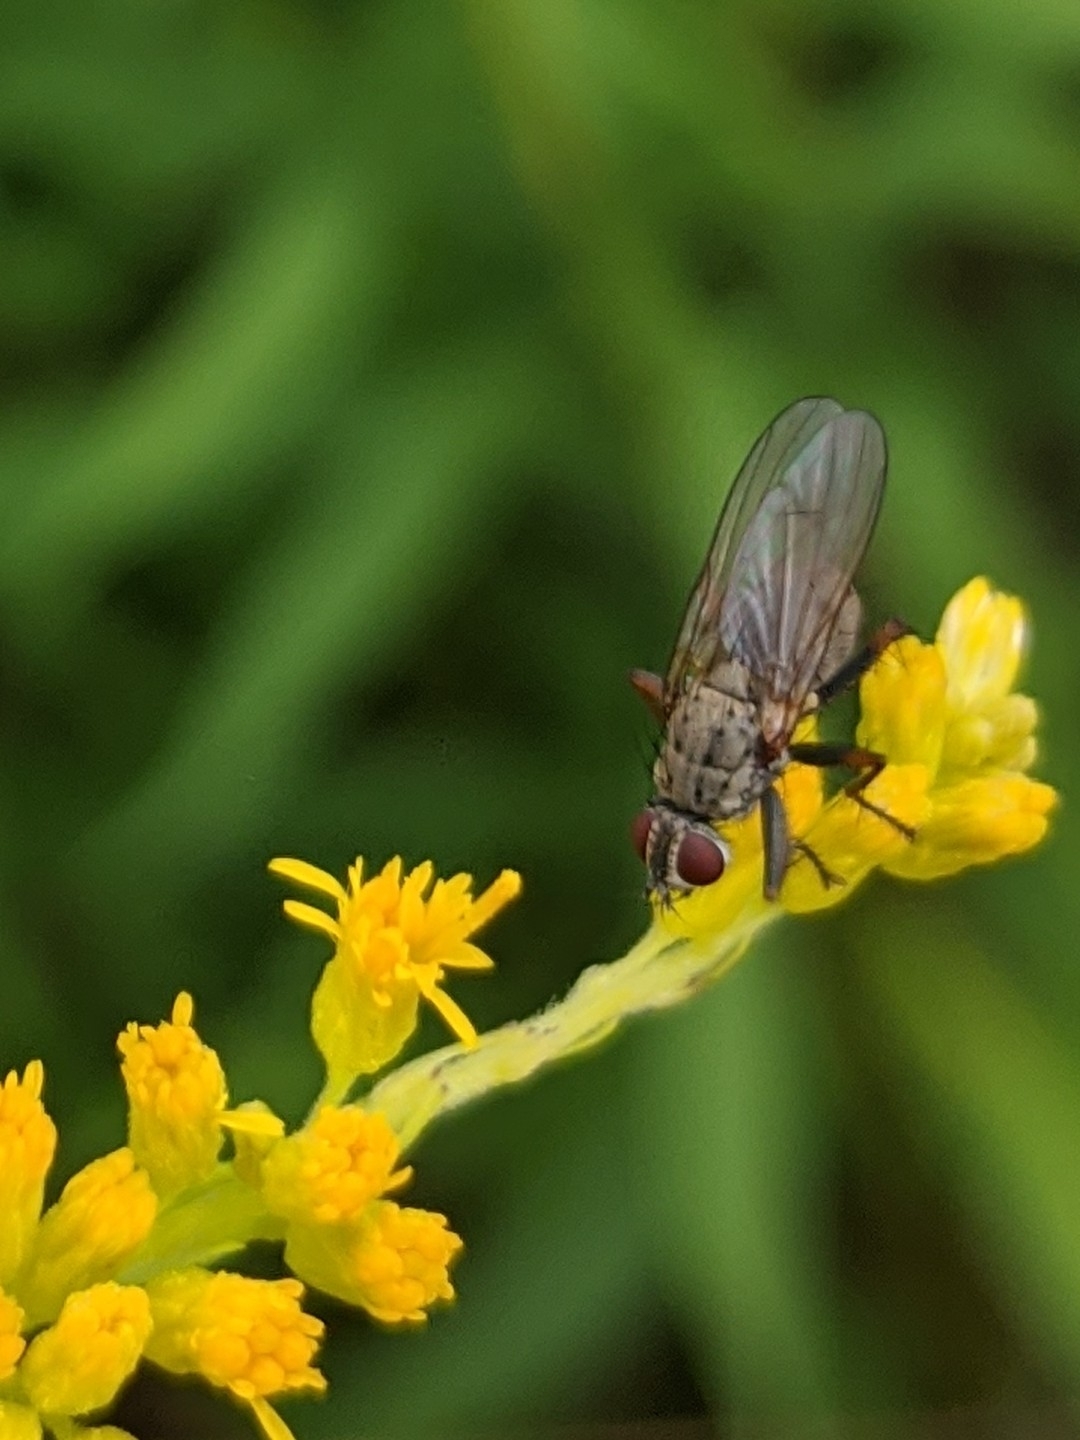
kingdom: Animalia
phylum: Arthropoda
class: Insecta
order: Diptera
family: Muscidae
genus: Coenosia
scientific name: Coenosia tigrina
